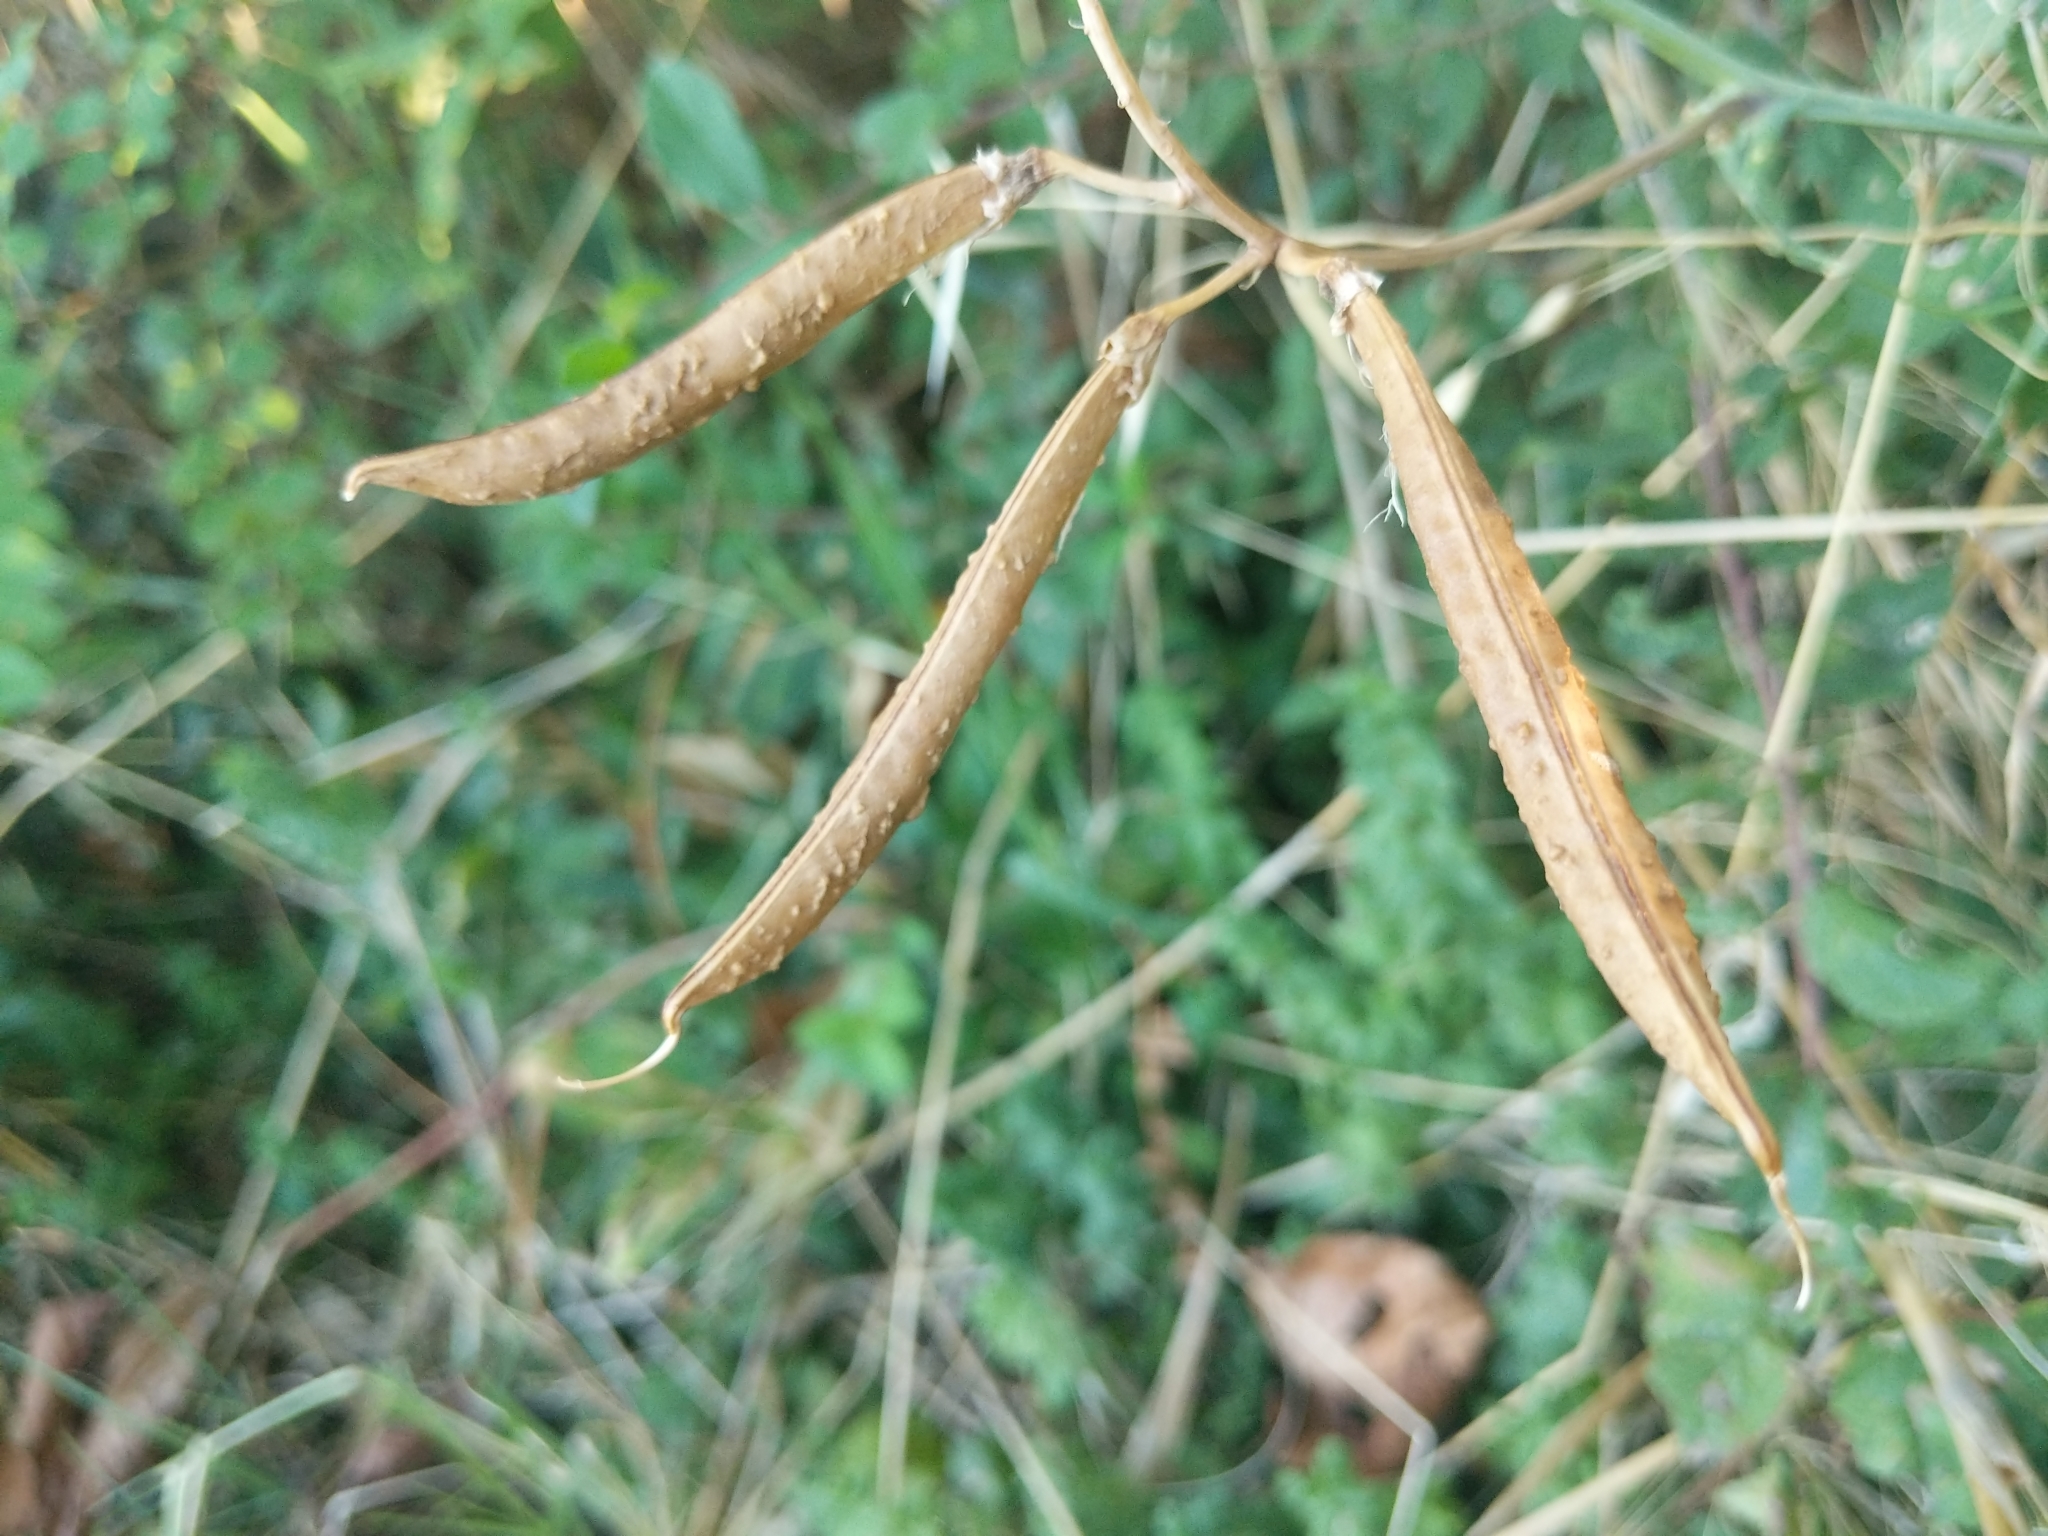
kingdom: Plantae
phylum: Tracheophyta
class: Magnoliopsida
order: Fabales
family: Fabaceae
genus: Lathyrus
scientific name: Lathyrus latifolius
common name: Perennial pea
